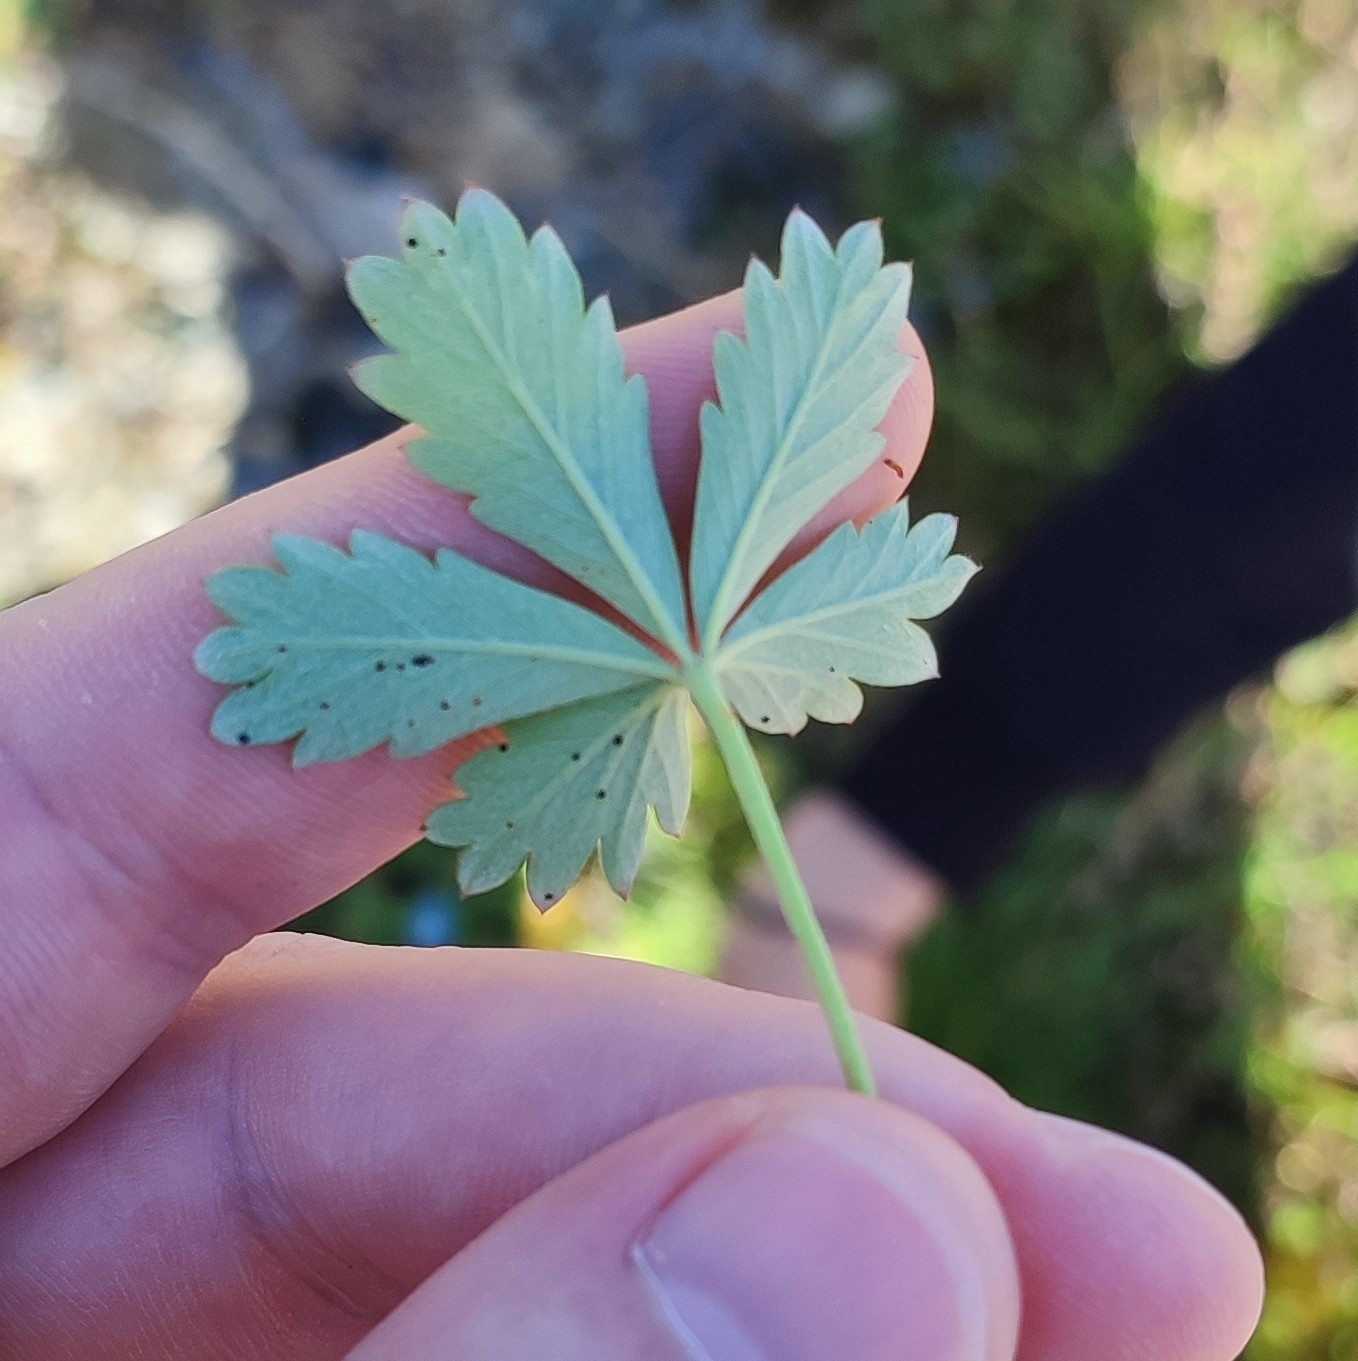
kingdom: Plantae
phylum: Tracheophyta
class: Magnoliopsida
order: Rosales
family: Rosaceae
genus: Potentilla
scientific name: Potentilla argentea
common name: Hoary cinquefoil
